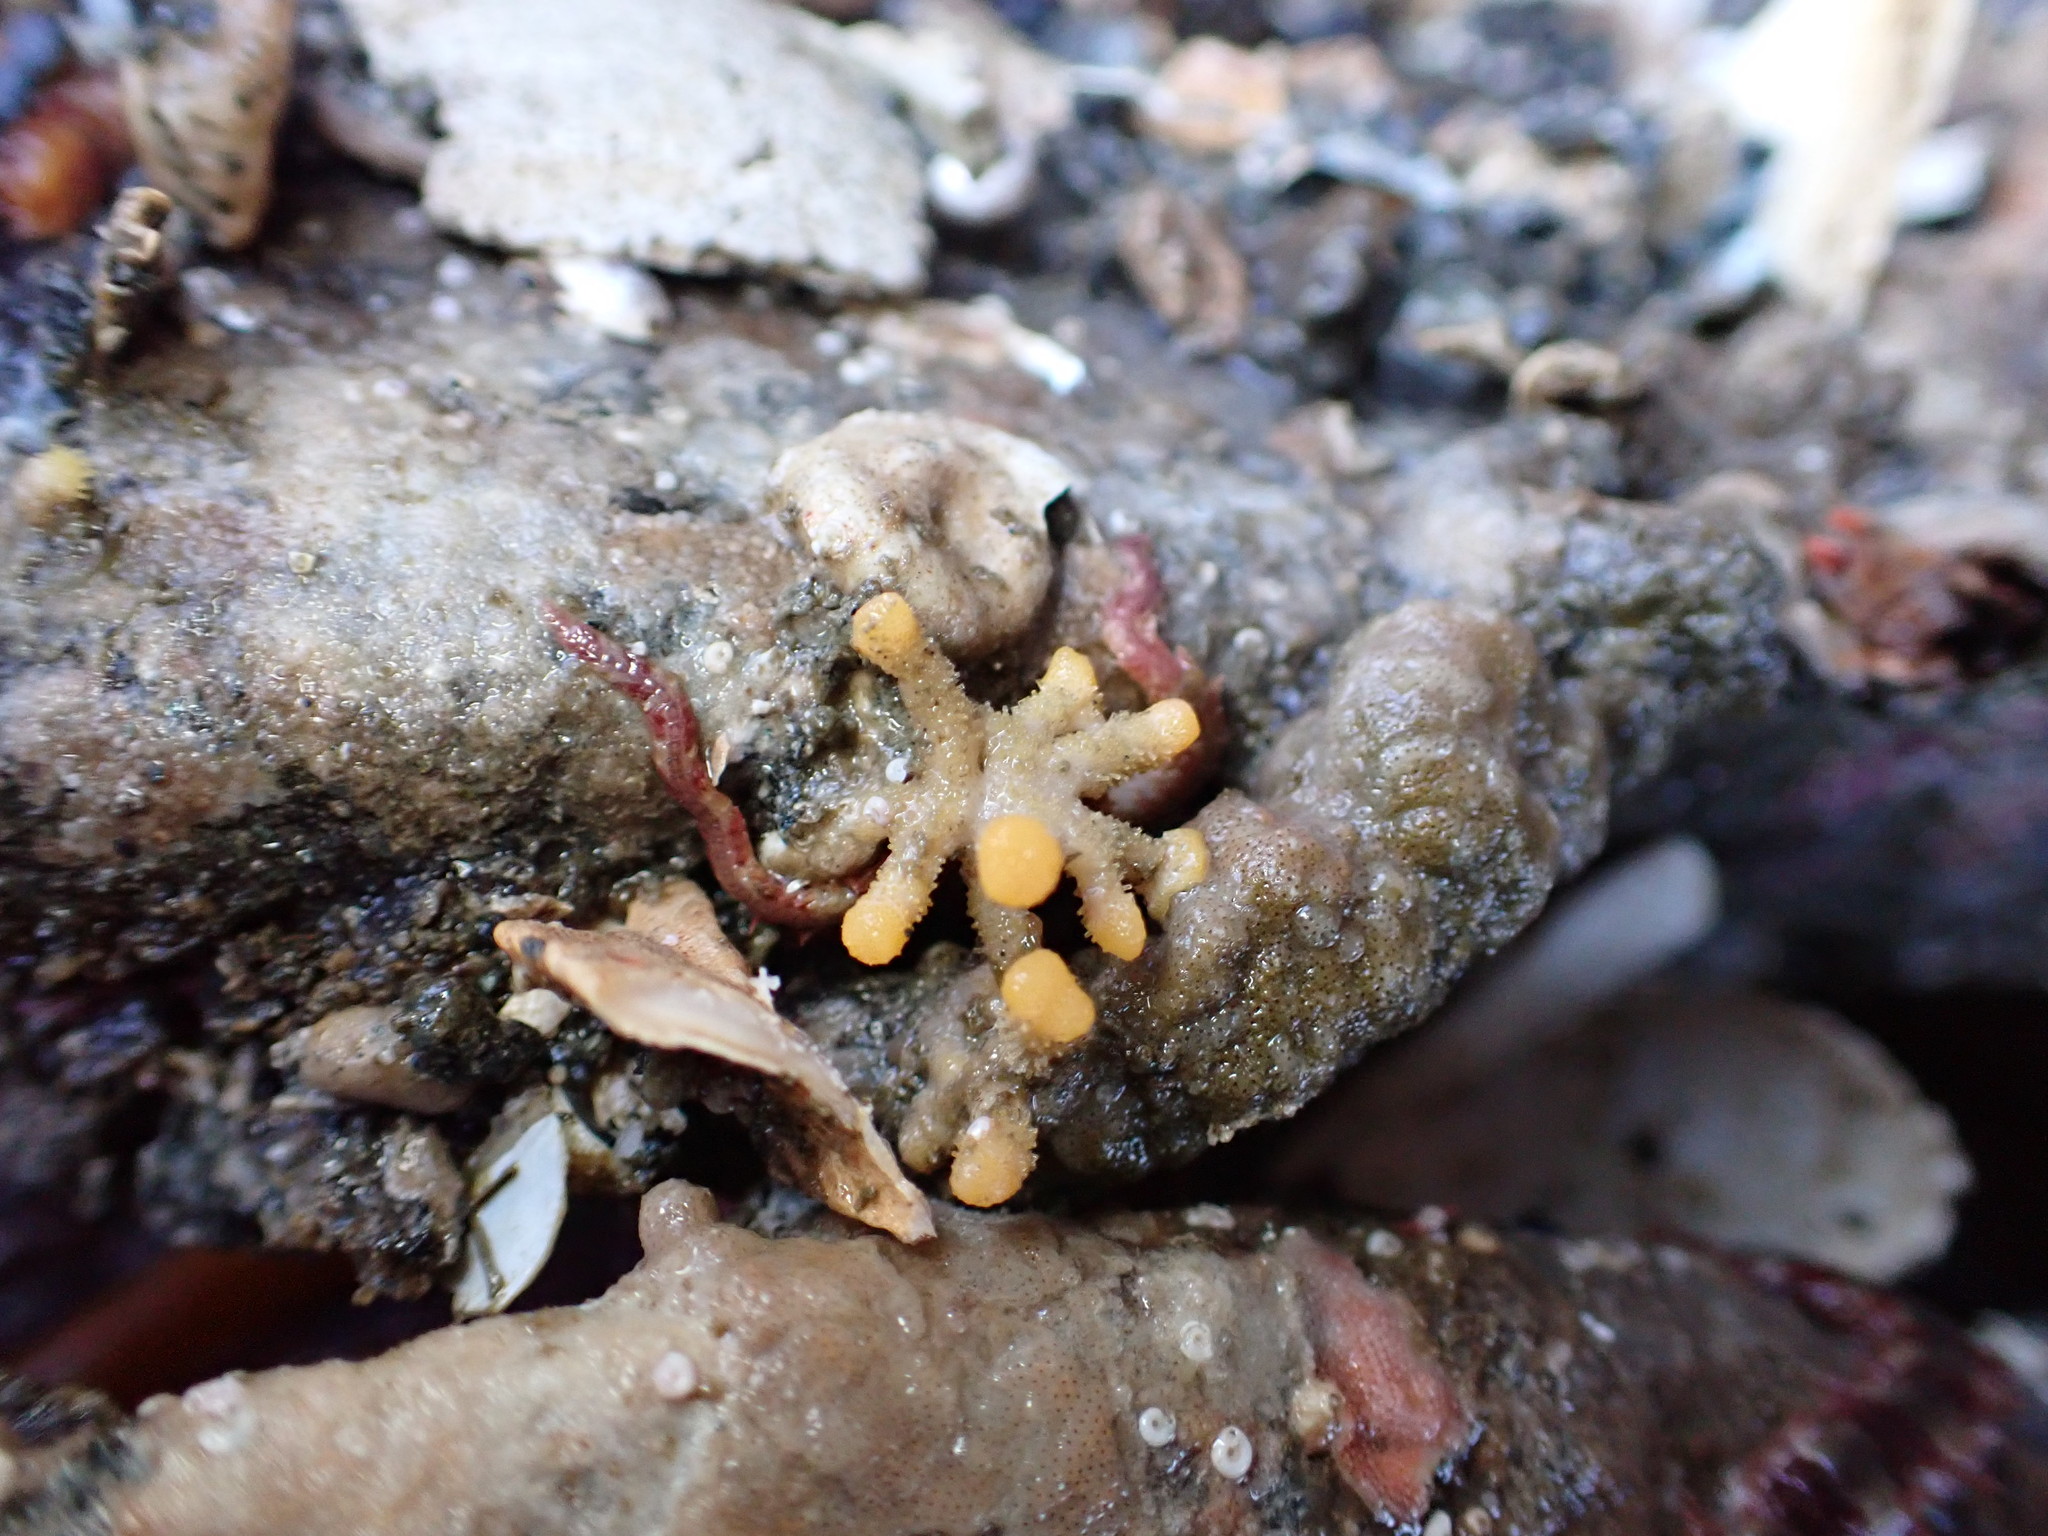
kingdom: Animalia
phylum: Bryozoa
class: Stenolaemata
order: Cyclostomatida
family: Heteroporidae
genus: Heteropora
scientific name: Heteropora pacifica
